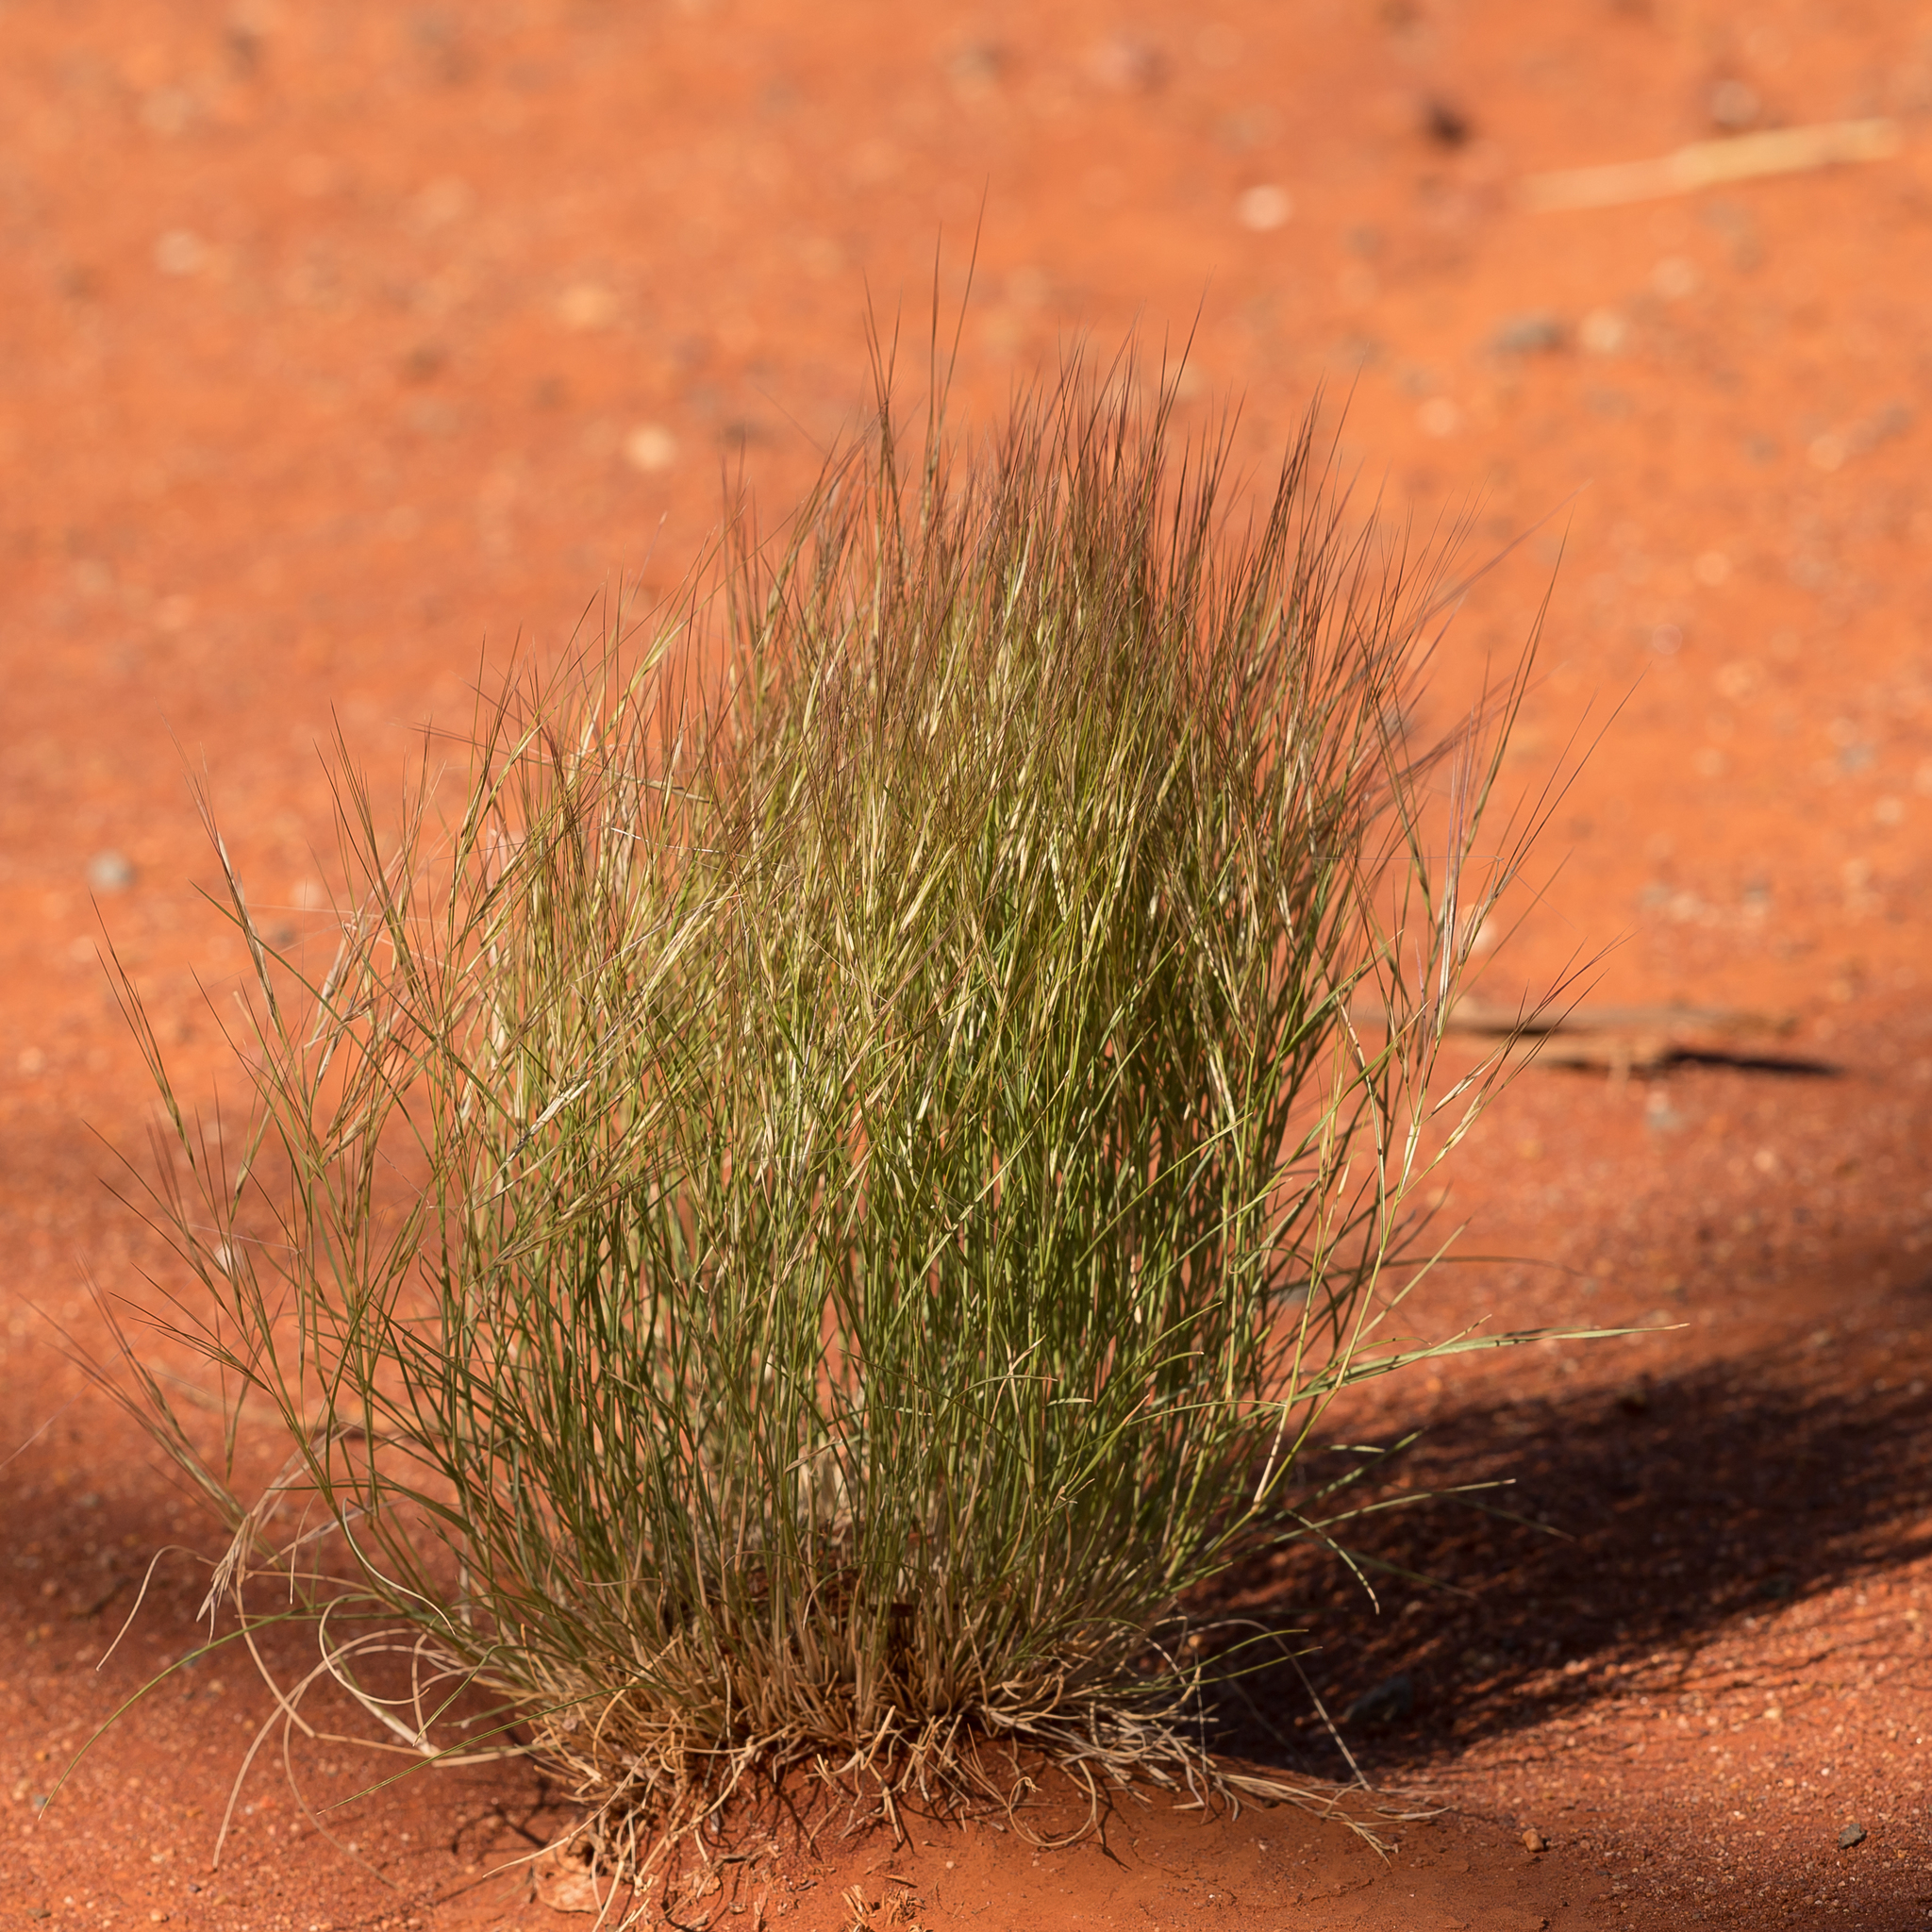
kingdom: Plantae
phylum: Tracheophyta
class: Liliopsida
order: Poales
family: Poaceae
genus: Aristida
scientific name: Aristida contorta
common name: Bunch kerosene grass
